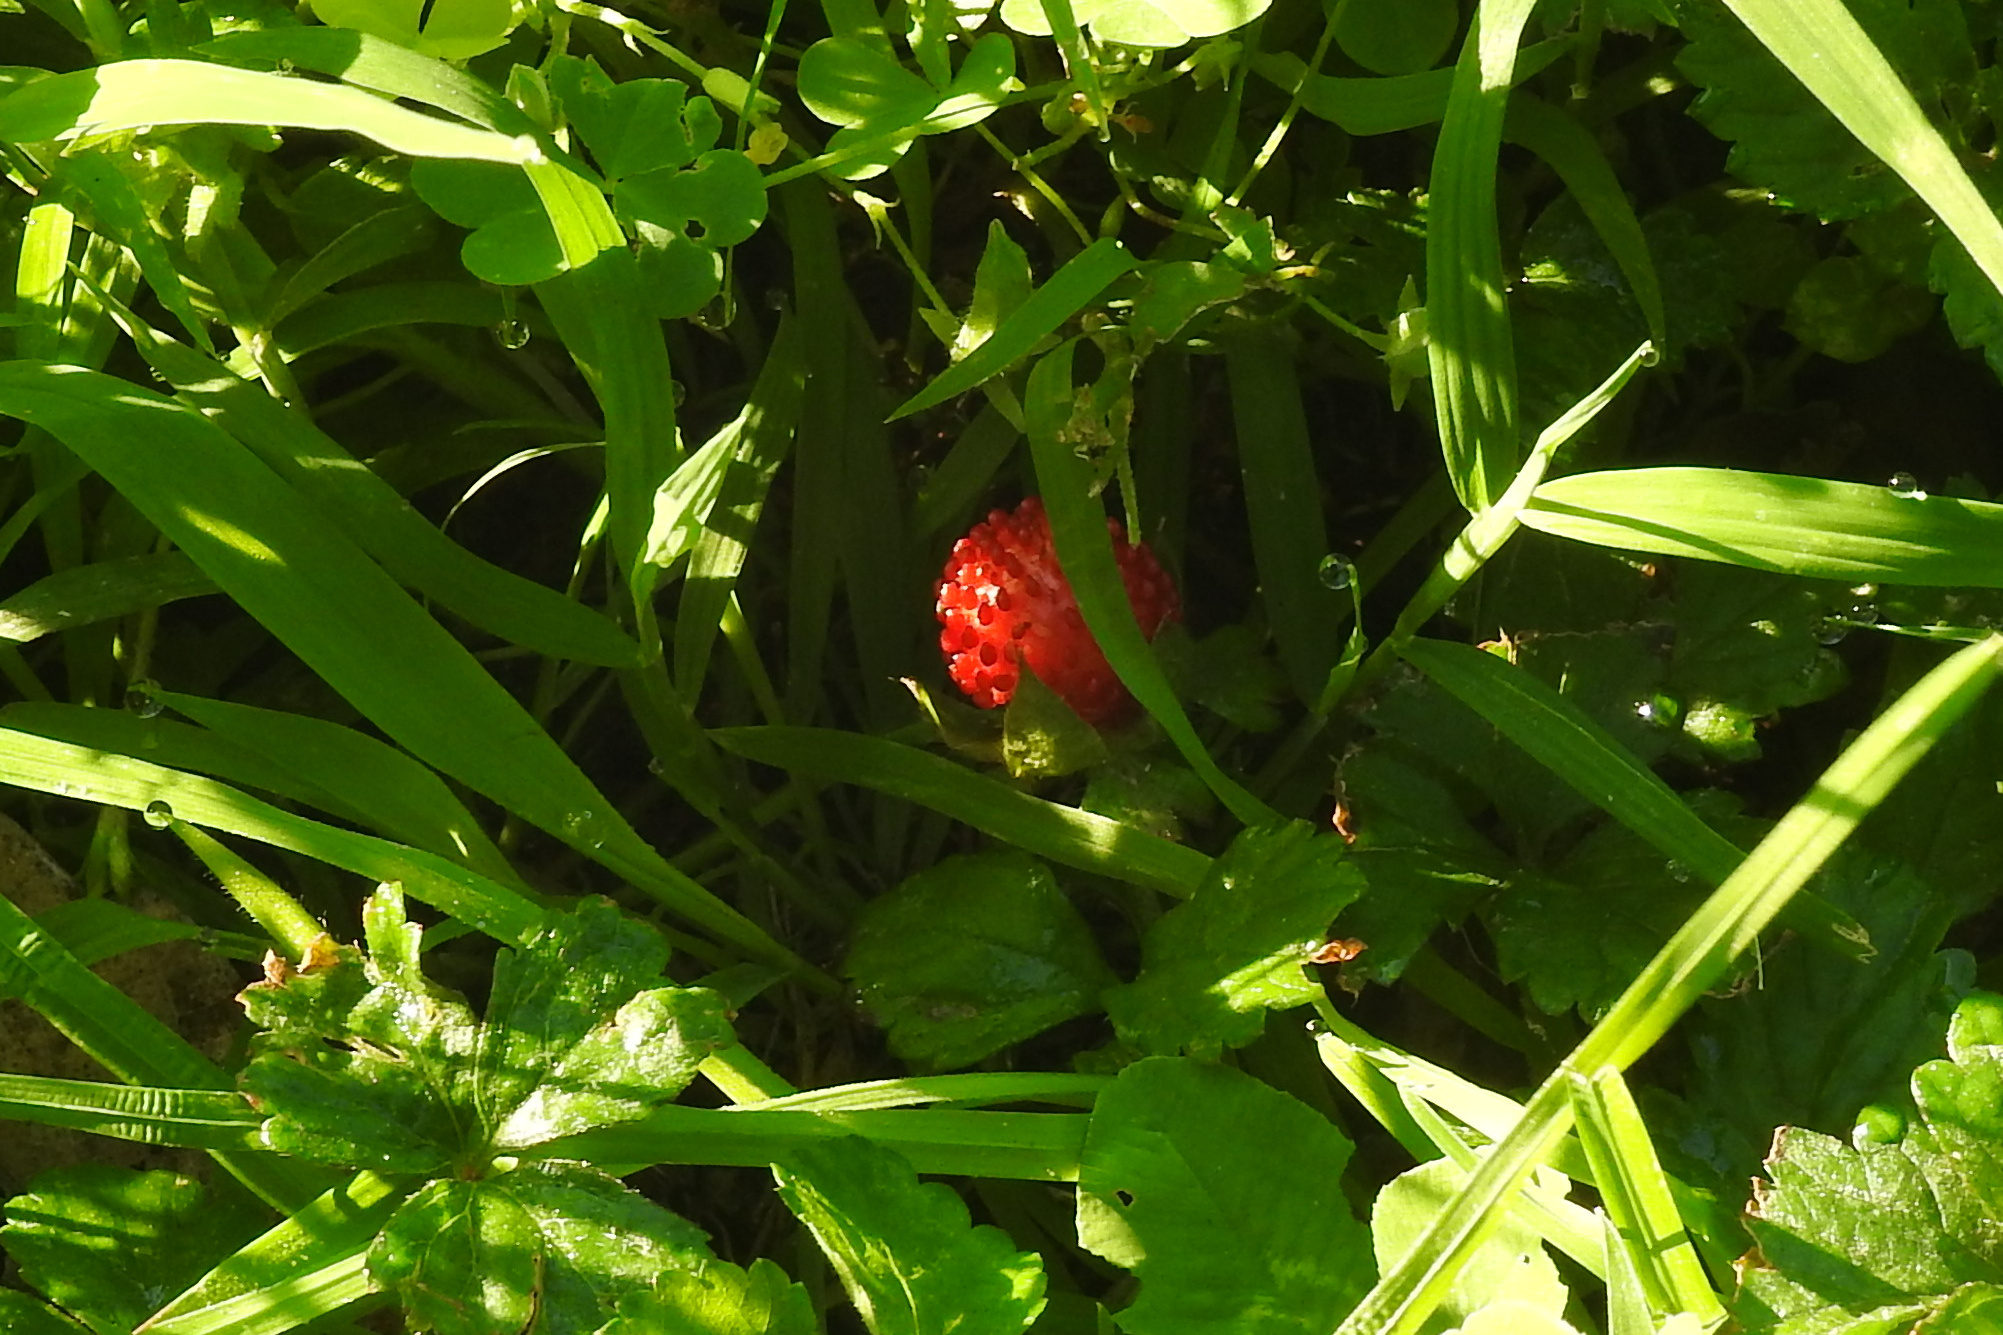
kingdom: Plantae
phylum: Tracheophyta
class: Magnoliopsida
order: Rosales
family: Rosaceae
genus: Potentilla
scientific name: Potentilla indica
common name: Yellow-flowered strawberry
